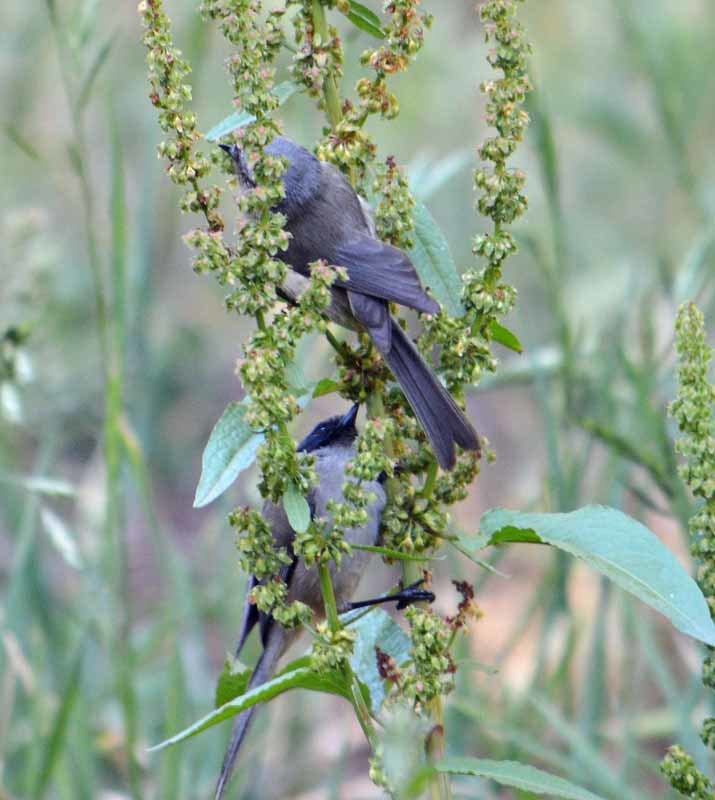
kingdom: Animalia
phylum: Chordata
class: Aves
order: Passeriformes
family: Aegithalidae
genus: Psaltriparus
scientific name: Psaltriparus minimus
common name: American bushtit
